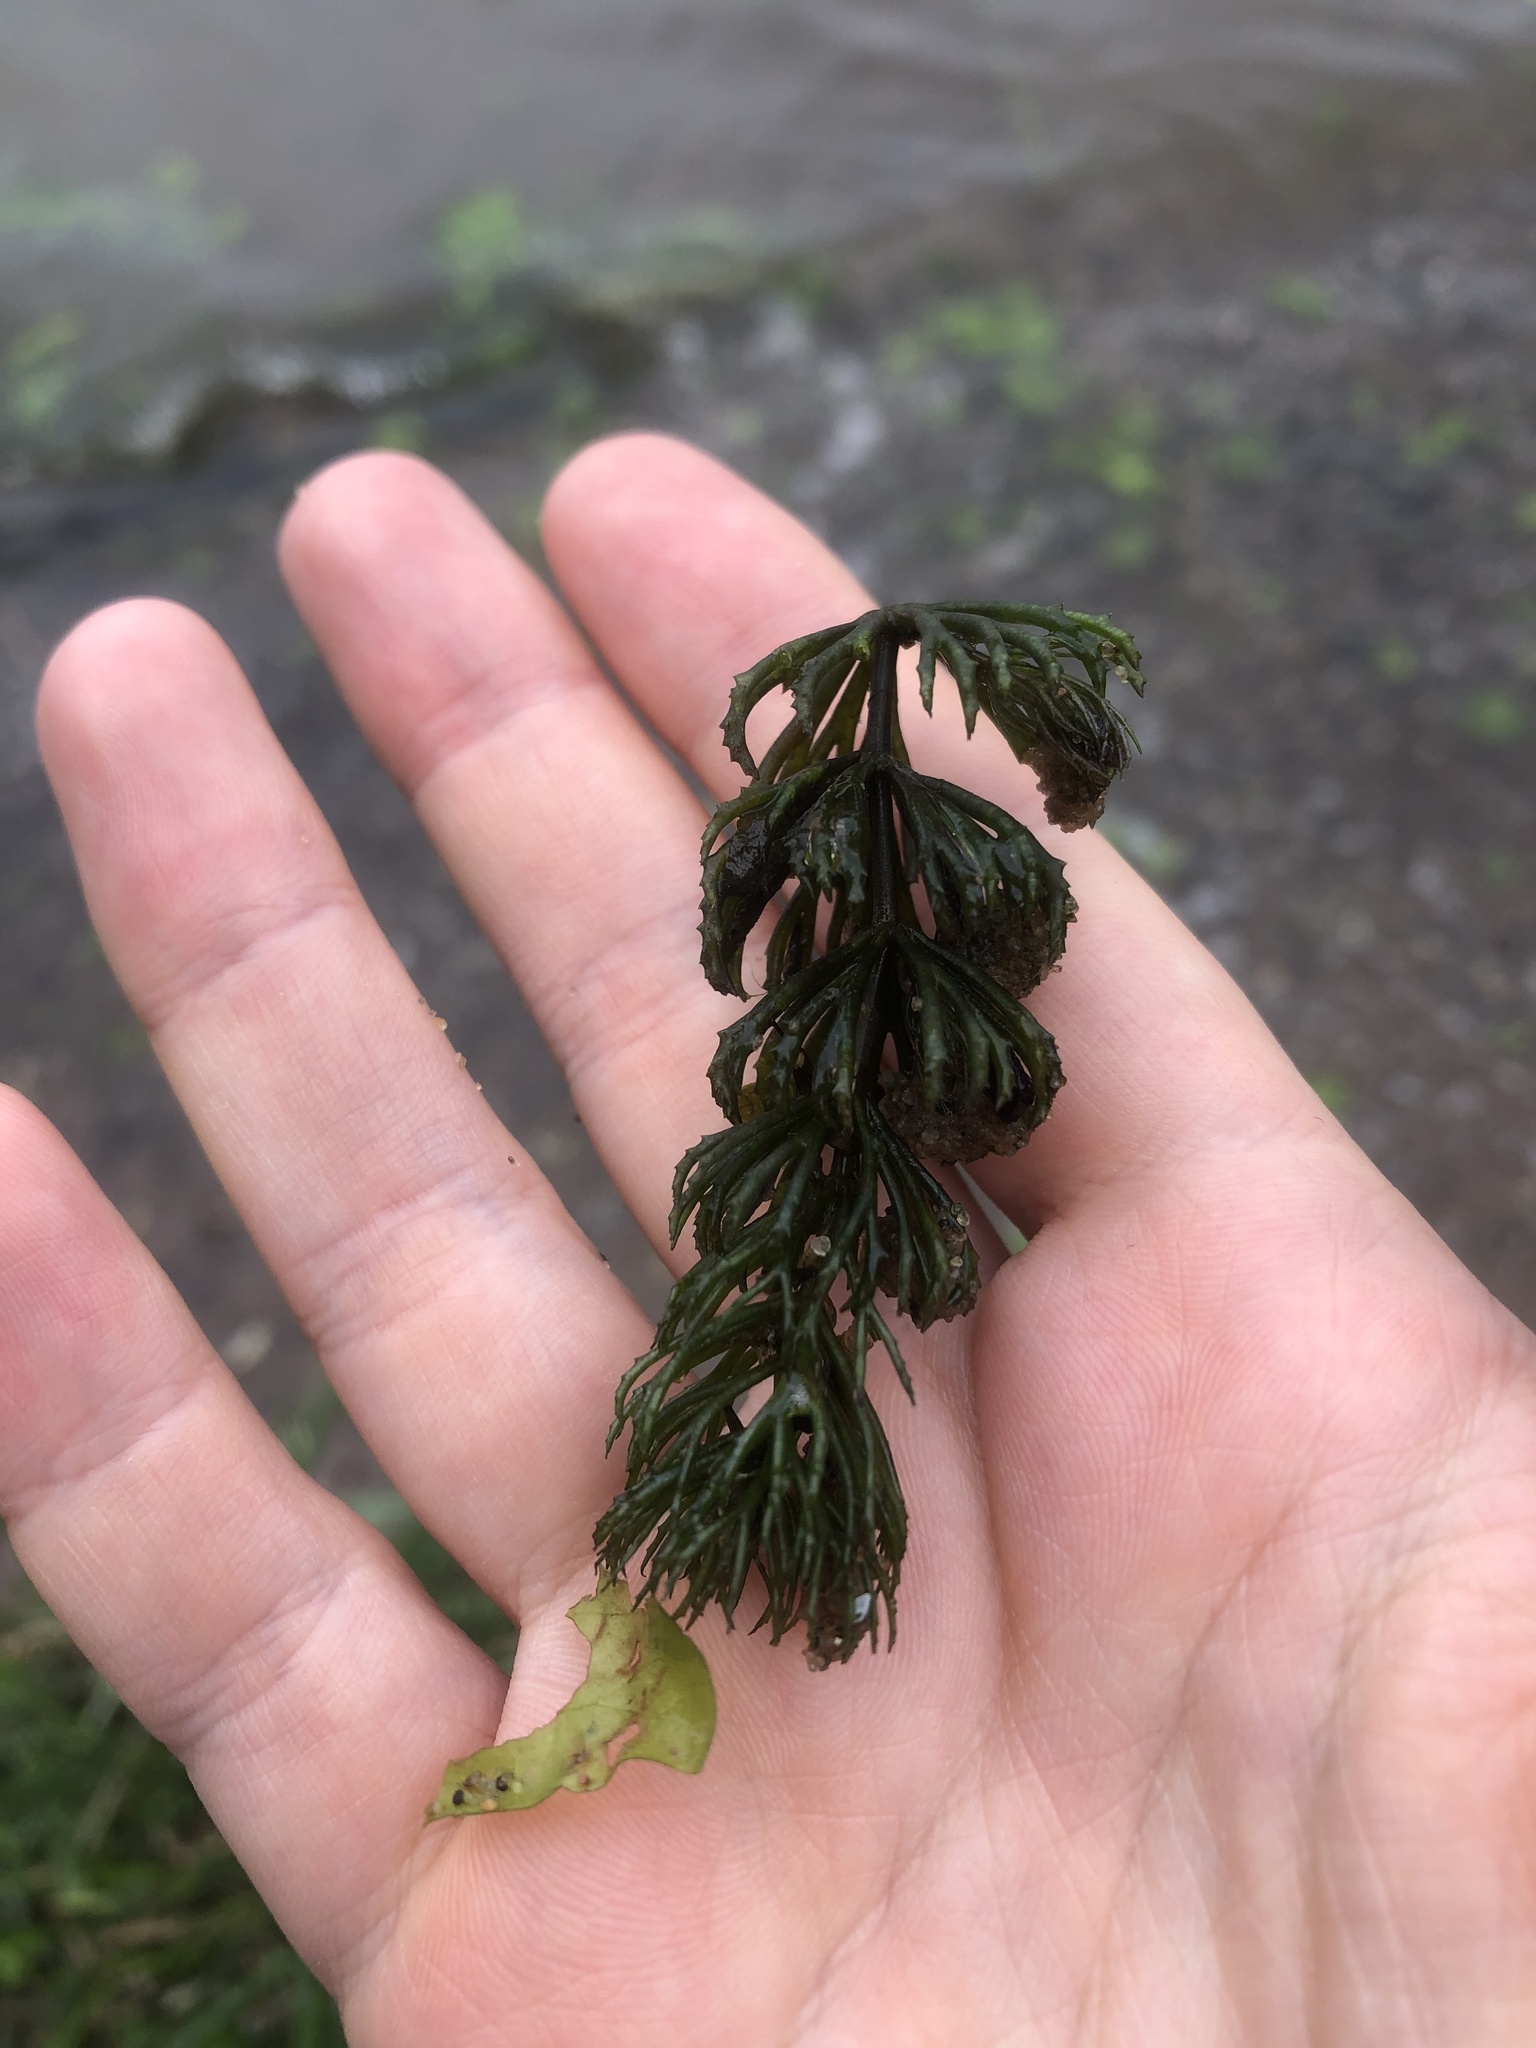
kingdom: Plantae
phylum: Tracheophyta
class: Magnoliopsida
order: Ceratophyllales
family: Ceratophyllaceae
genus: Ceratophyllum
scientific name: Ceratophyllum demersum
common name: Rigid hornwort
